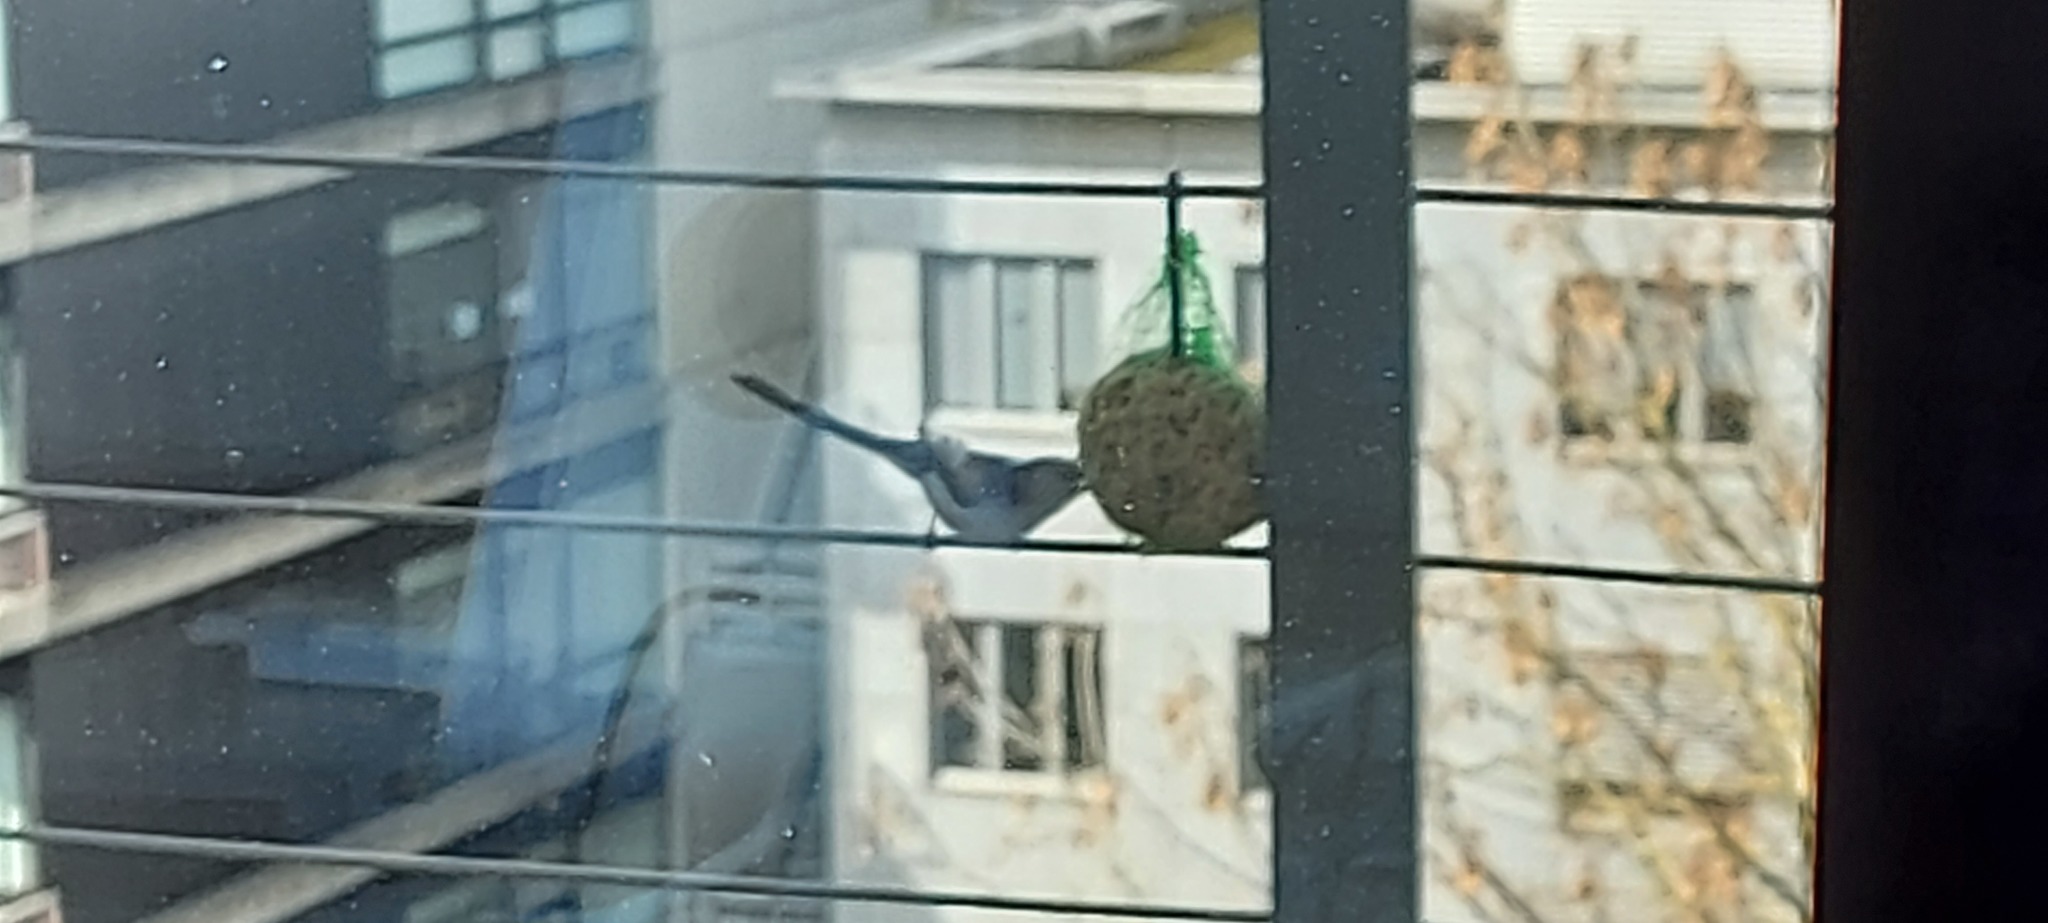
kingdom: Animalia
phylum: Chordata
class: Aves
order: Passeriformes
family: Aegithalidae
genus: Aegithalos
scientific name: Aegithalos caudatus
